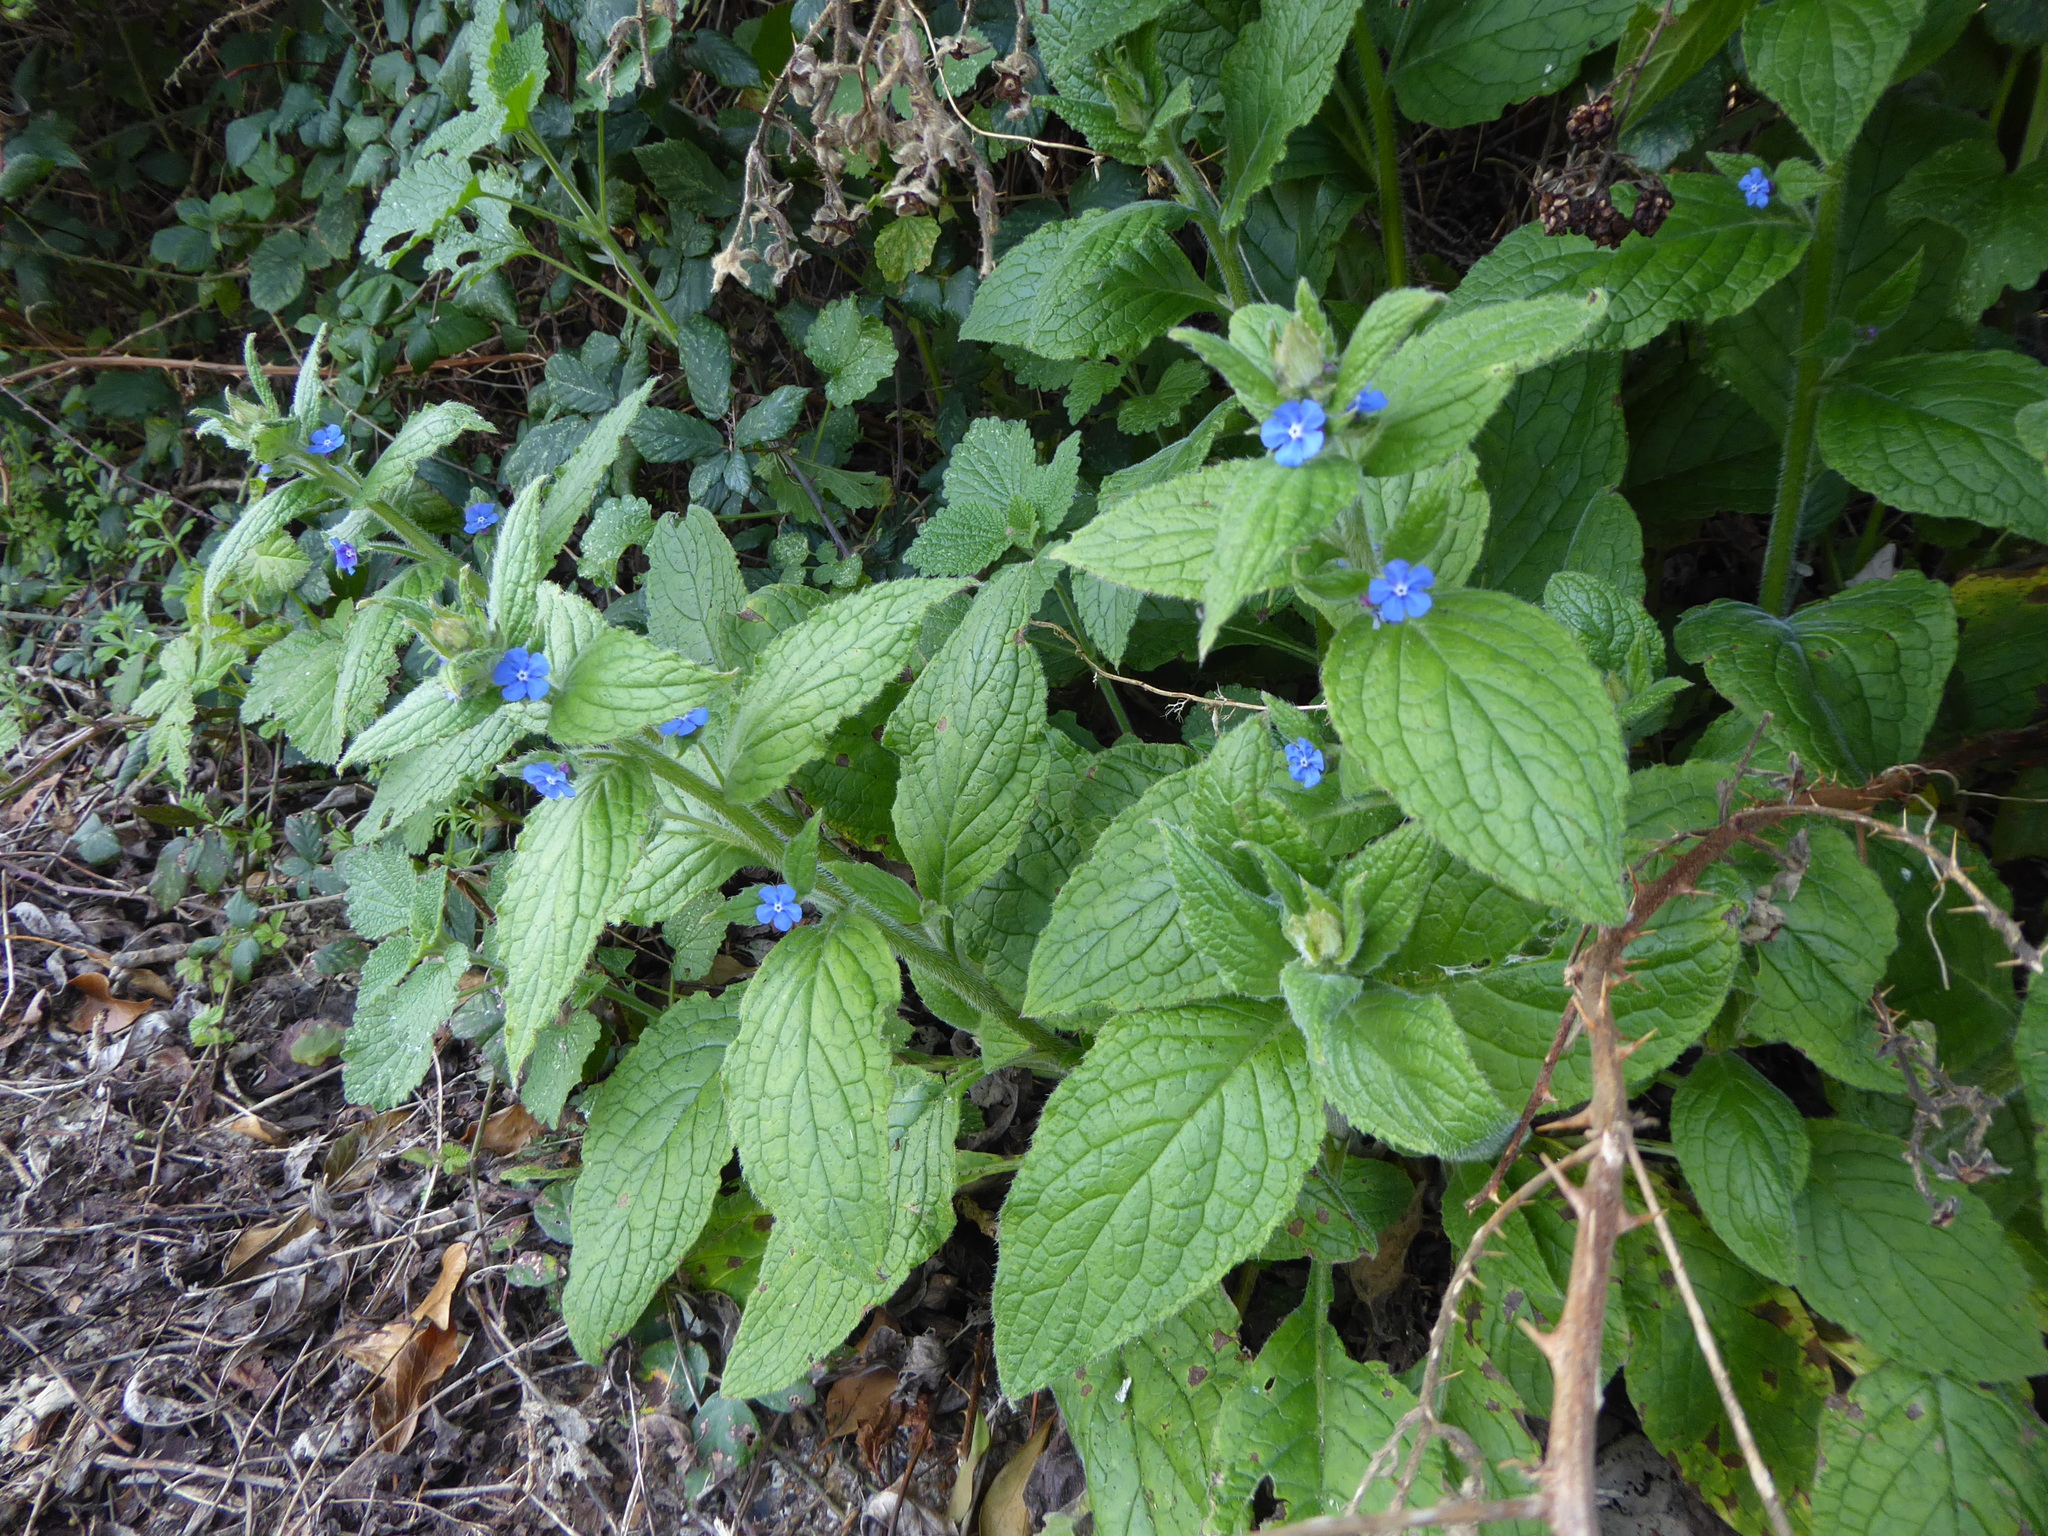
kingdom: Plantae
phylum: Tracheophyta
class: Magnoliopsida
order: Boraginales
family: Boraginaceae
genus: Pentaglottis
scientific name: Pentaglottis sempervirens
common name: Green alkanet
